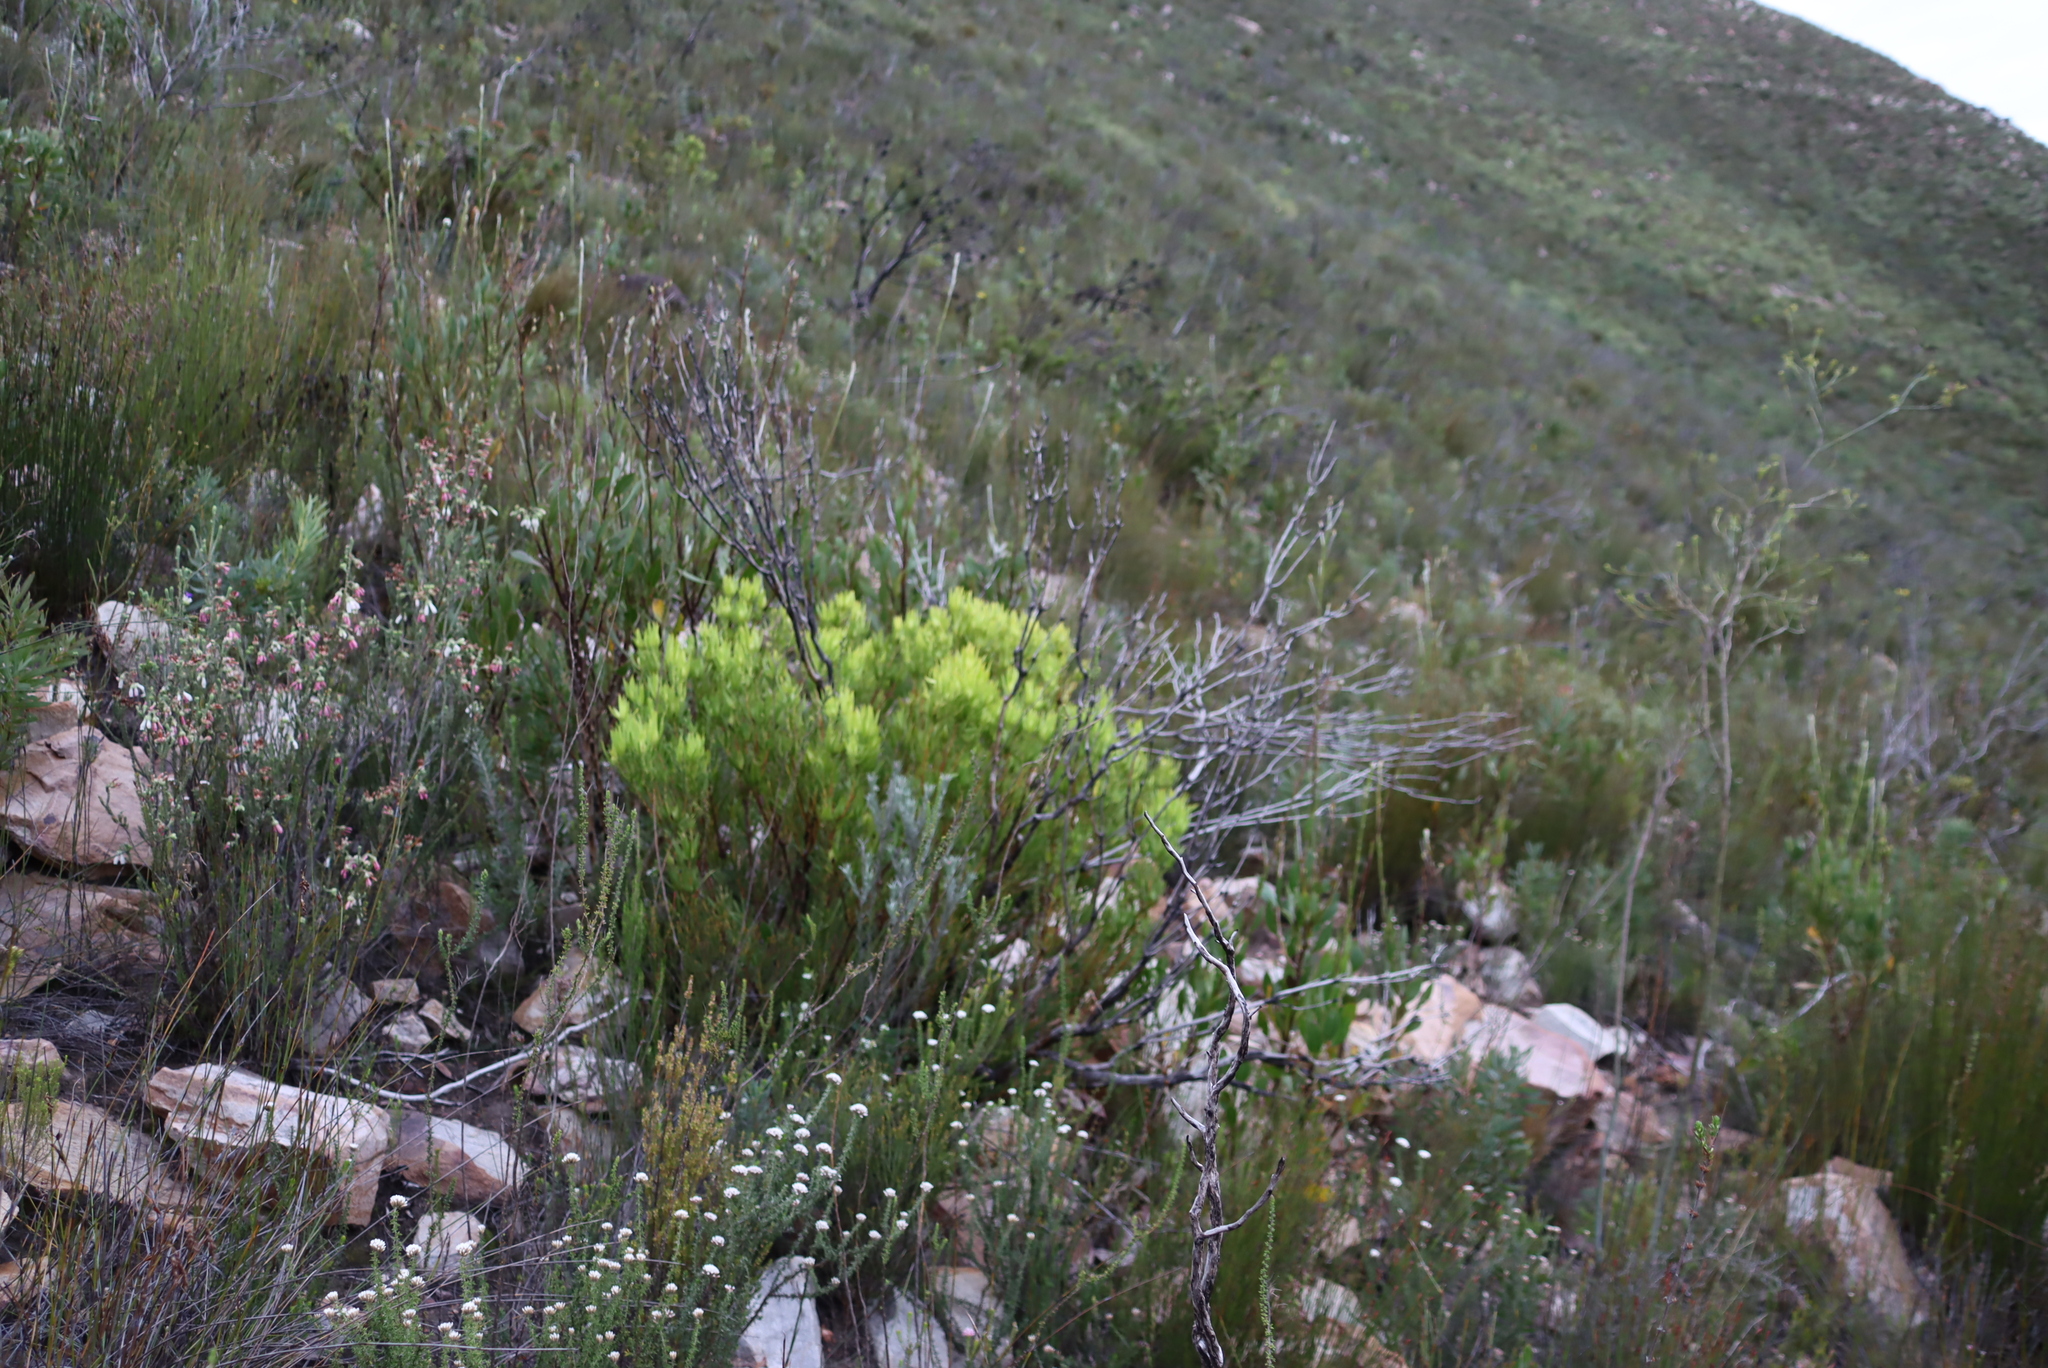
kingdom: Plantae
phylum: Tracheophyta
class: Magnoliopsida
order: Proteales
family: Proteaceae
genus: Leucadendron
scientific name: Leucadendron salignum
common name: Common sunshine conebush
